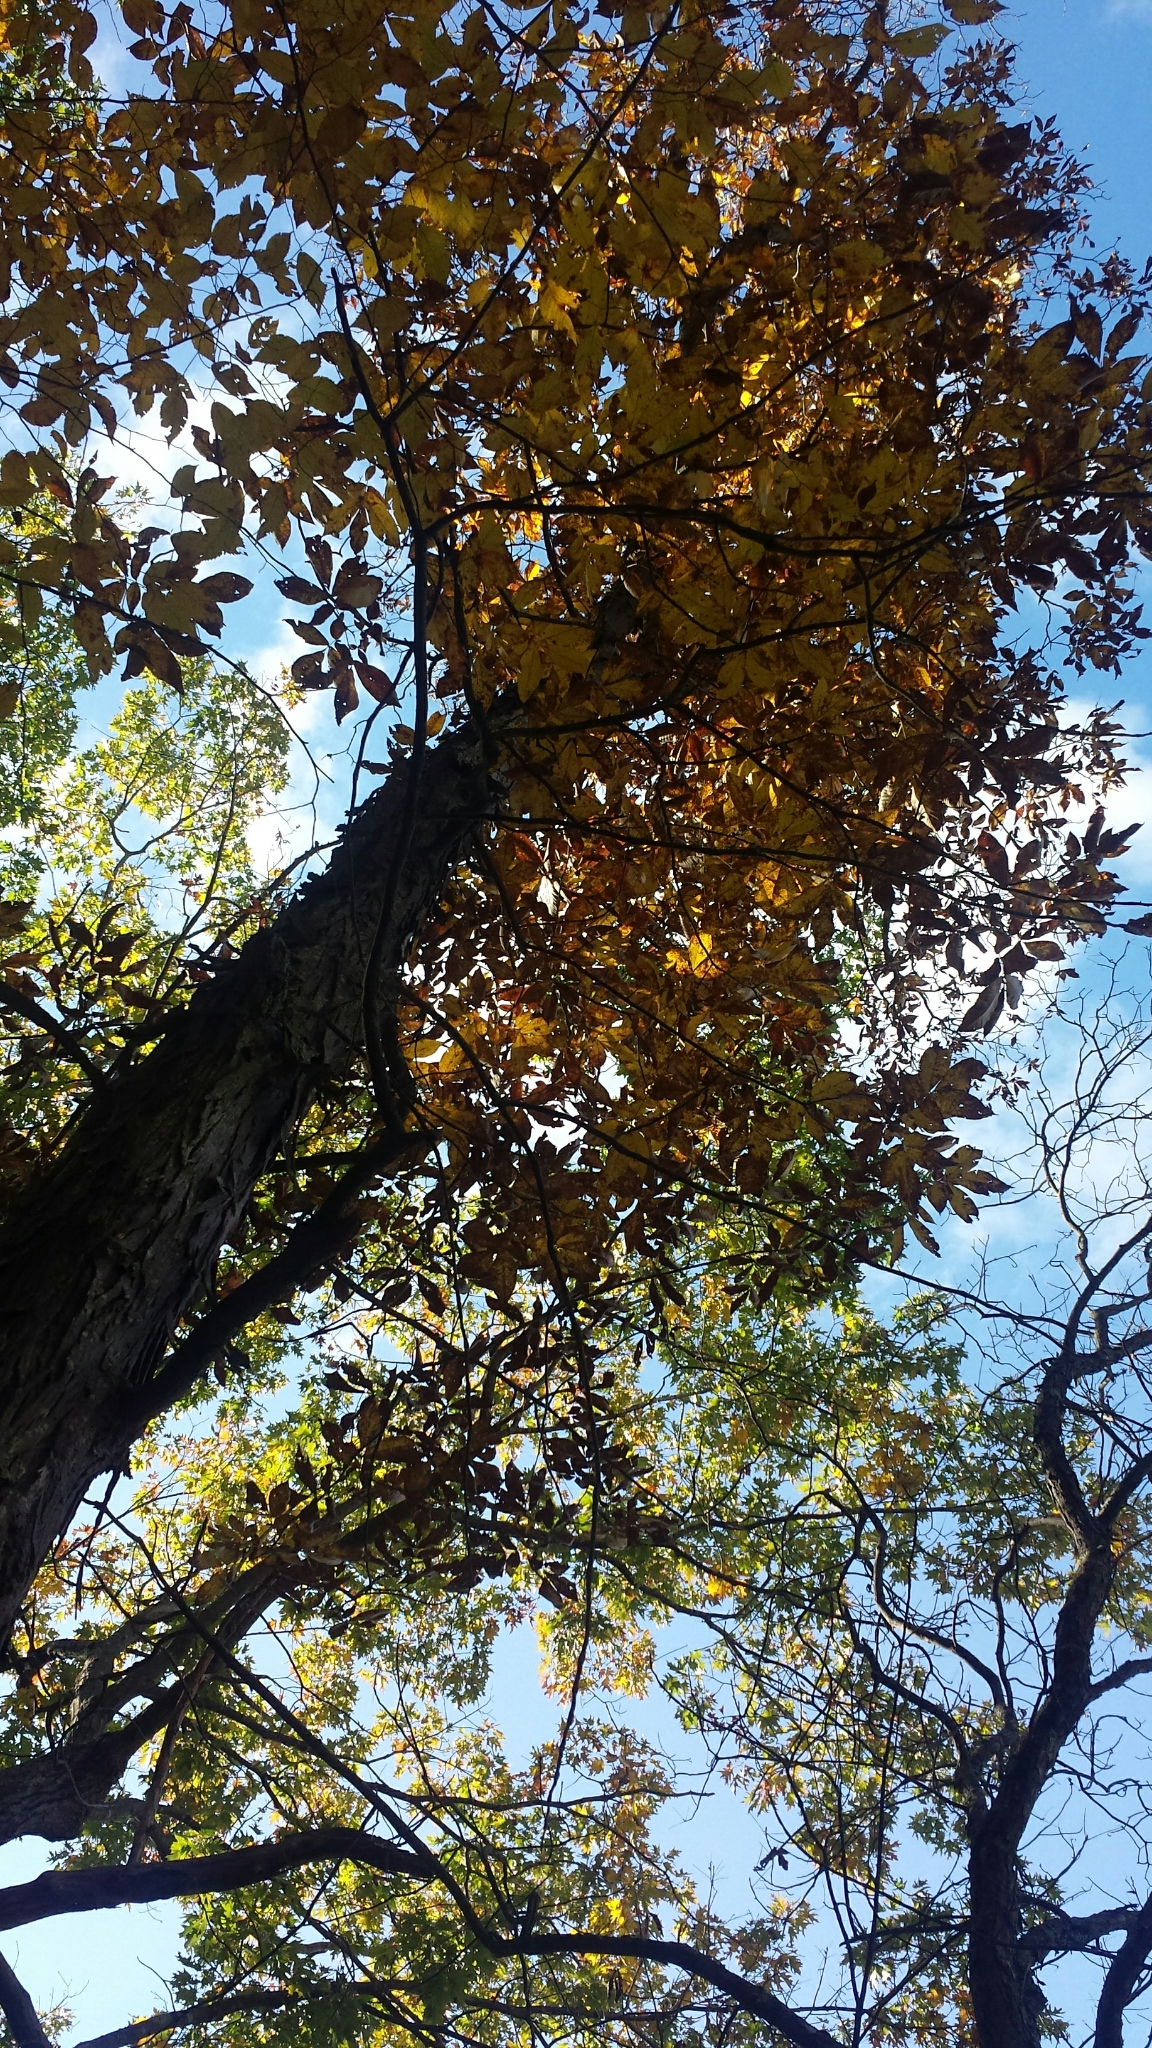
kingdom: Plantae
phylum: Tracheophyta
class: Magnoliopsida
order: Fagales
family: Juglandaceae
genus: Carya
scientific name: Carya ovata
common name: Shagbark hickory
